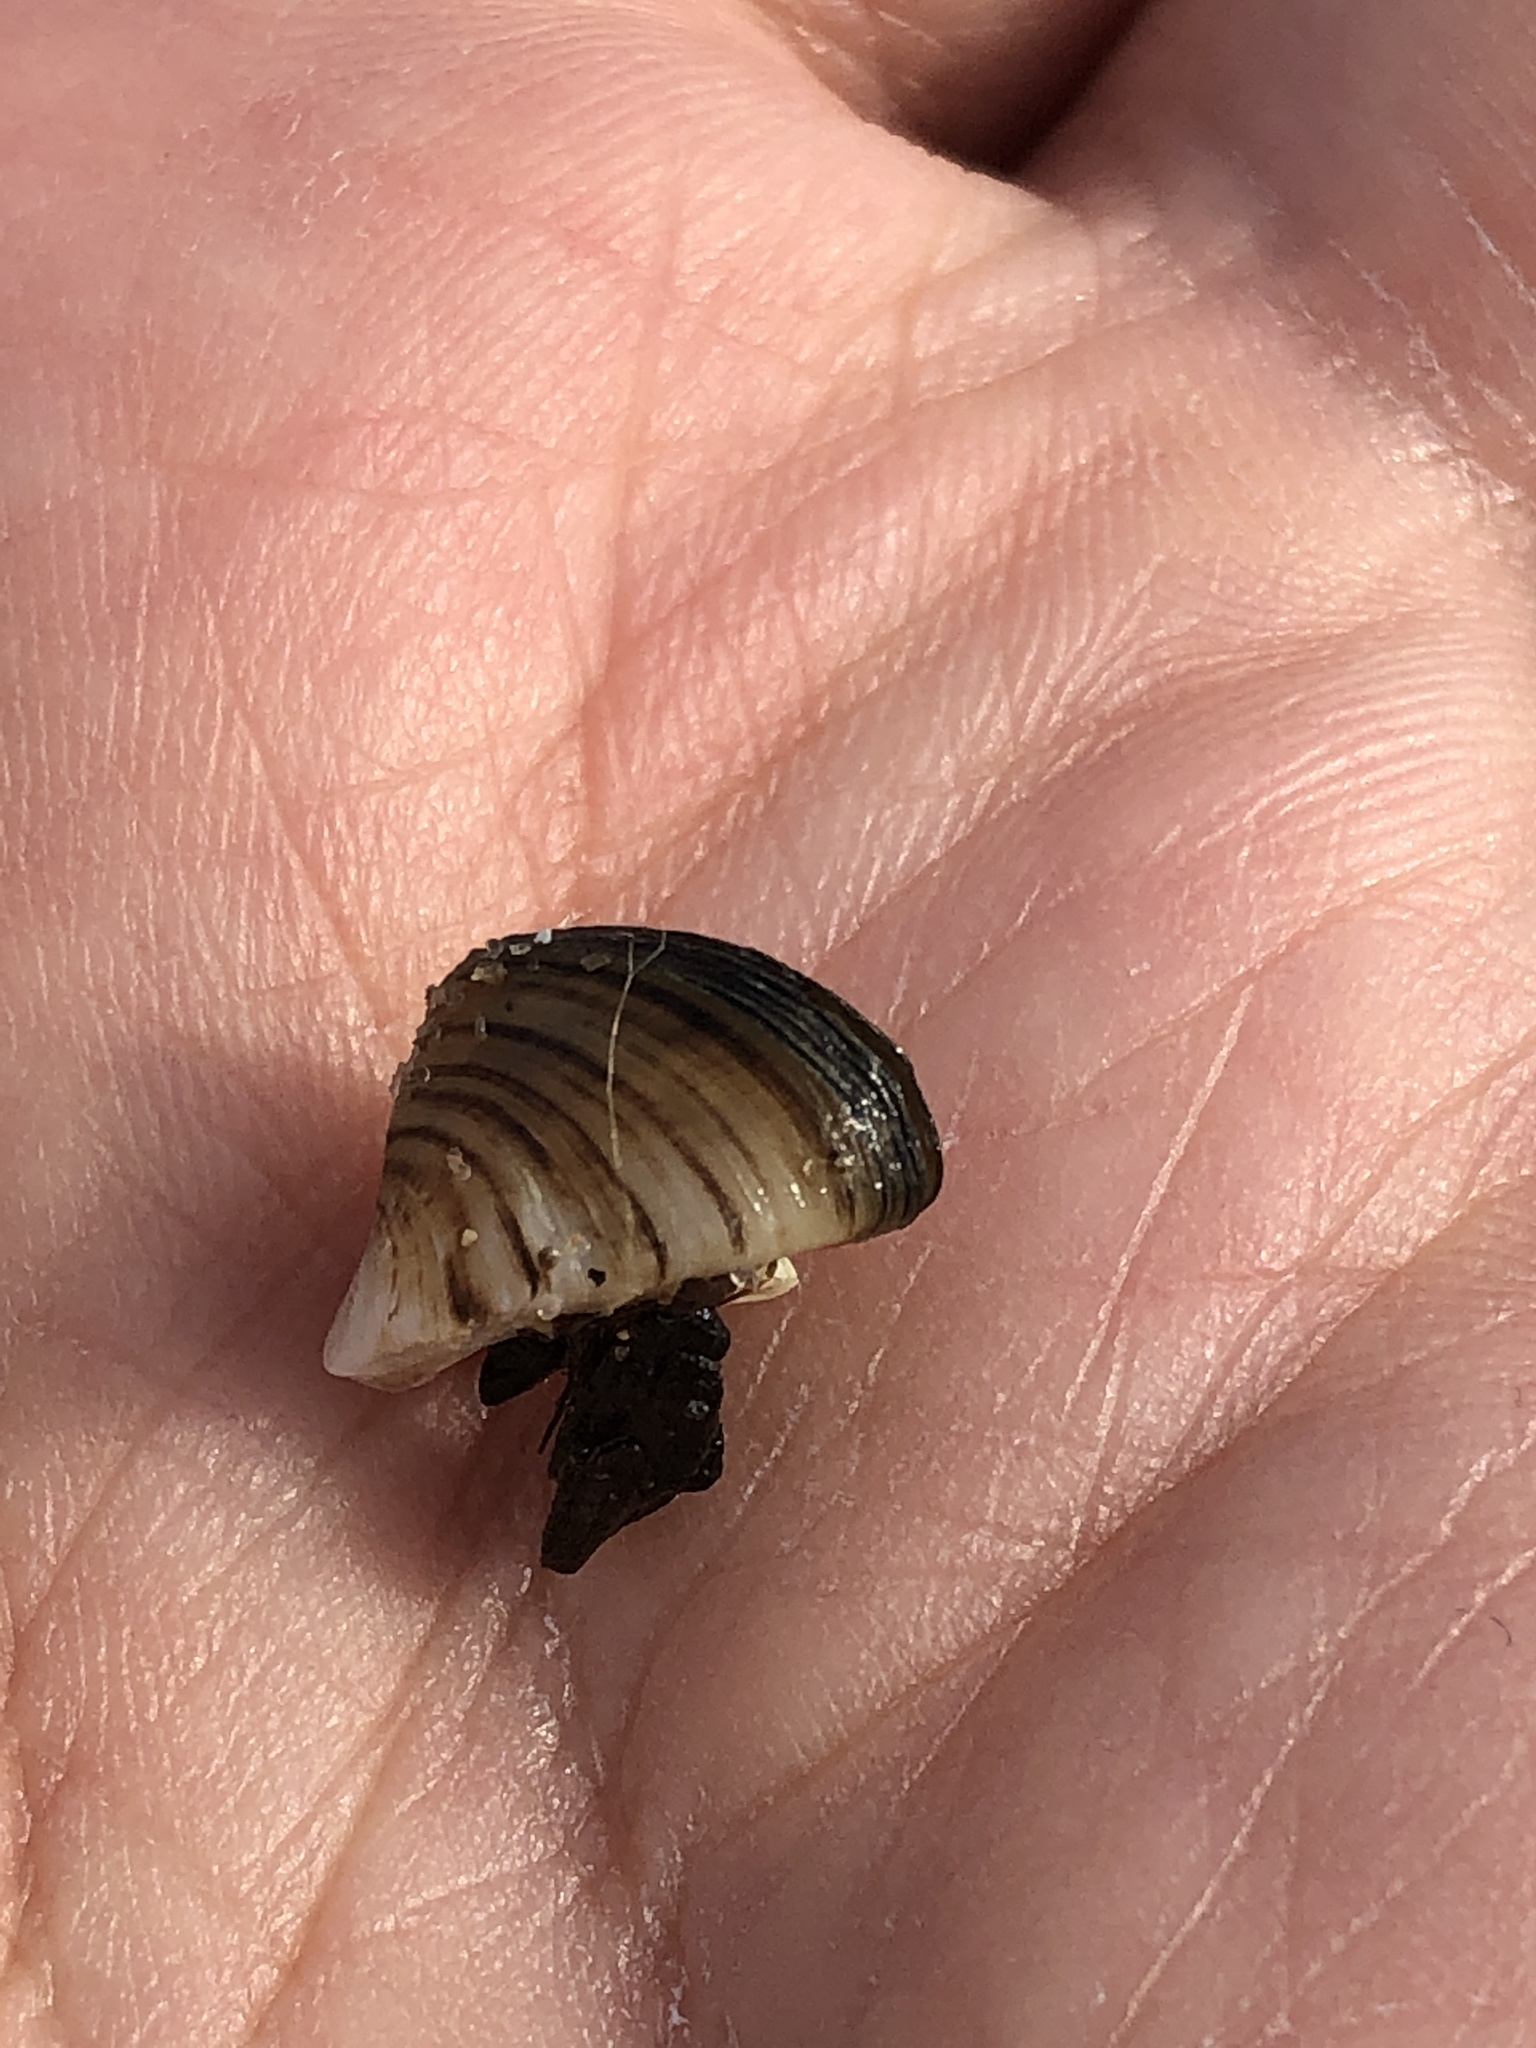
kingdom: Animalia
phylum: Mollusca
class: Bivalvia
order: Myida
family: Dreissenidae
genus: Dreissena
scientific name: Dreissena polymorpha
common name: Zebra mussel
